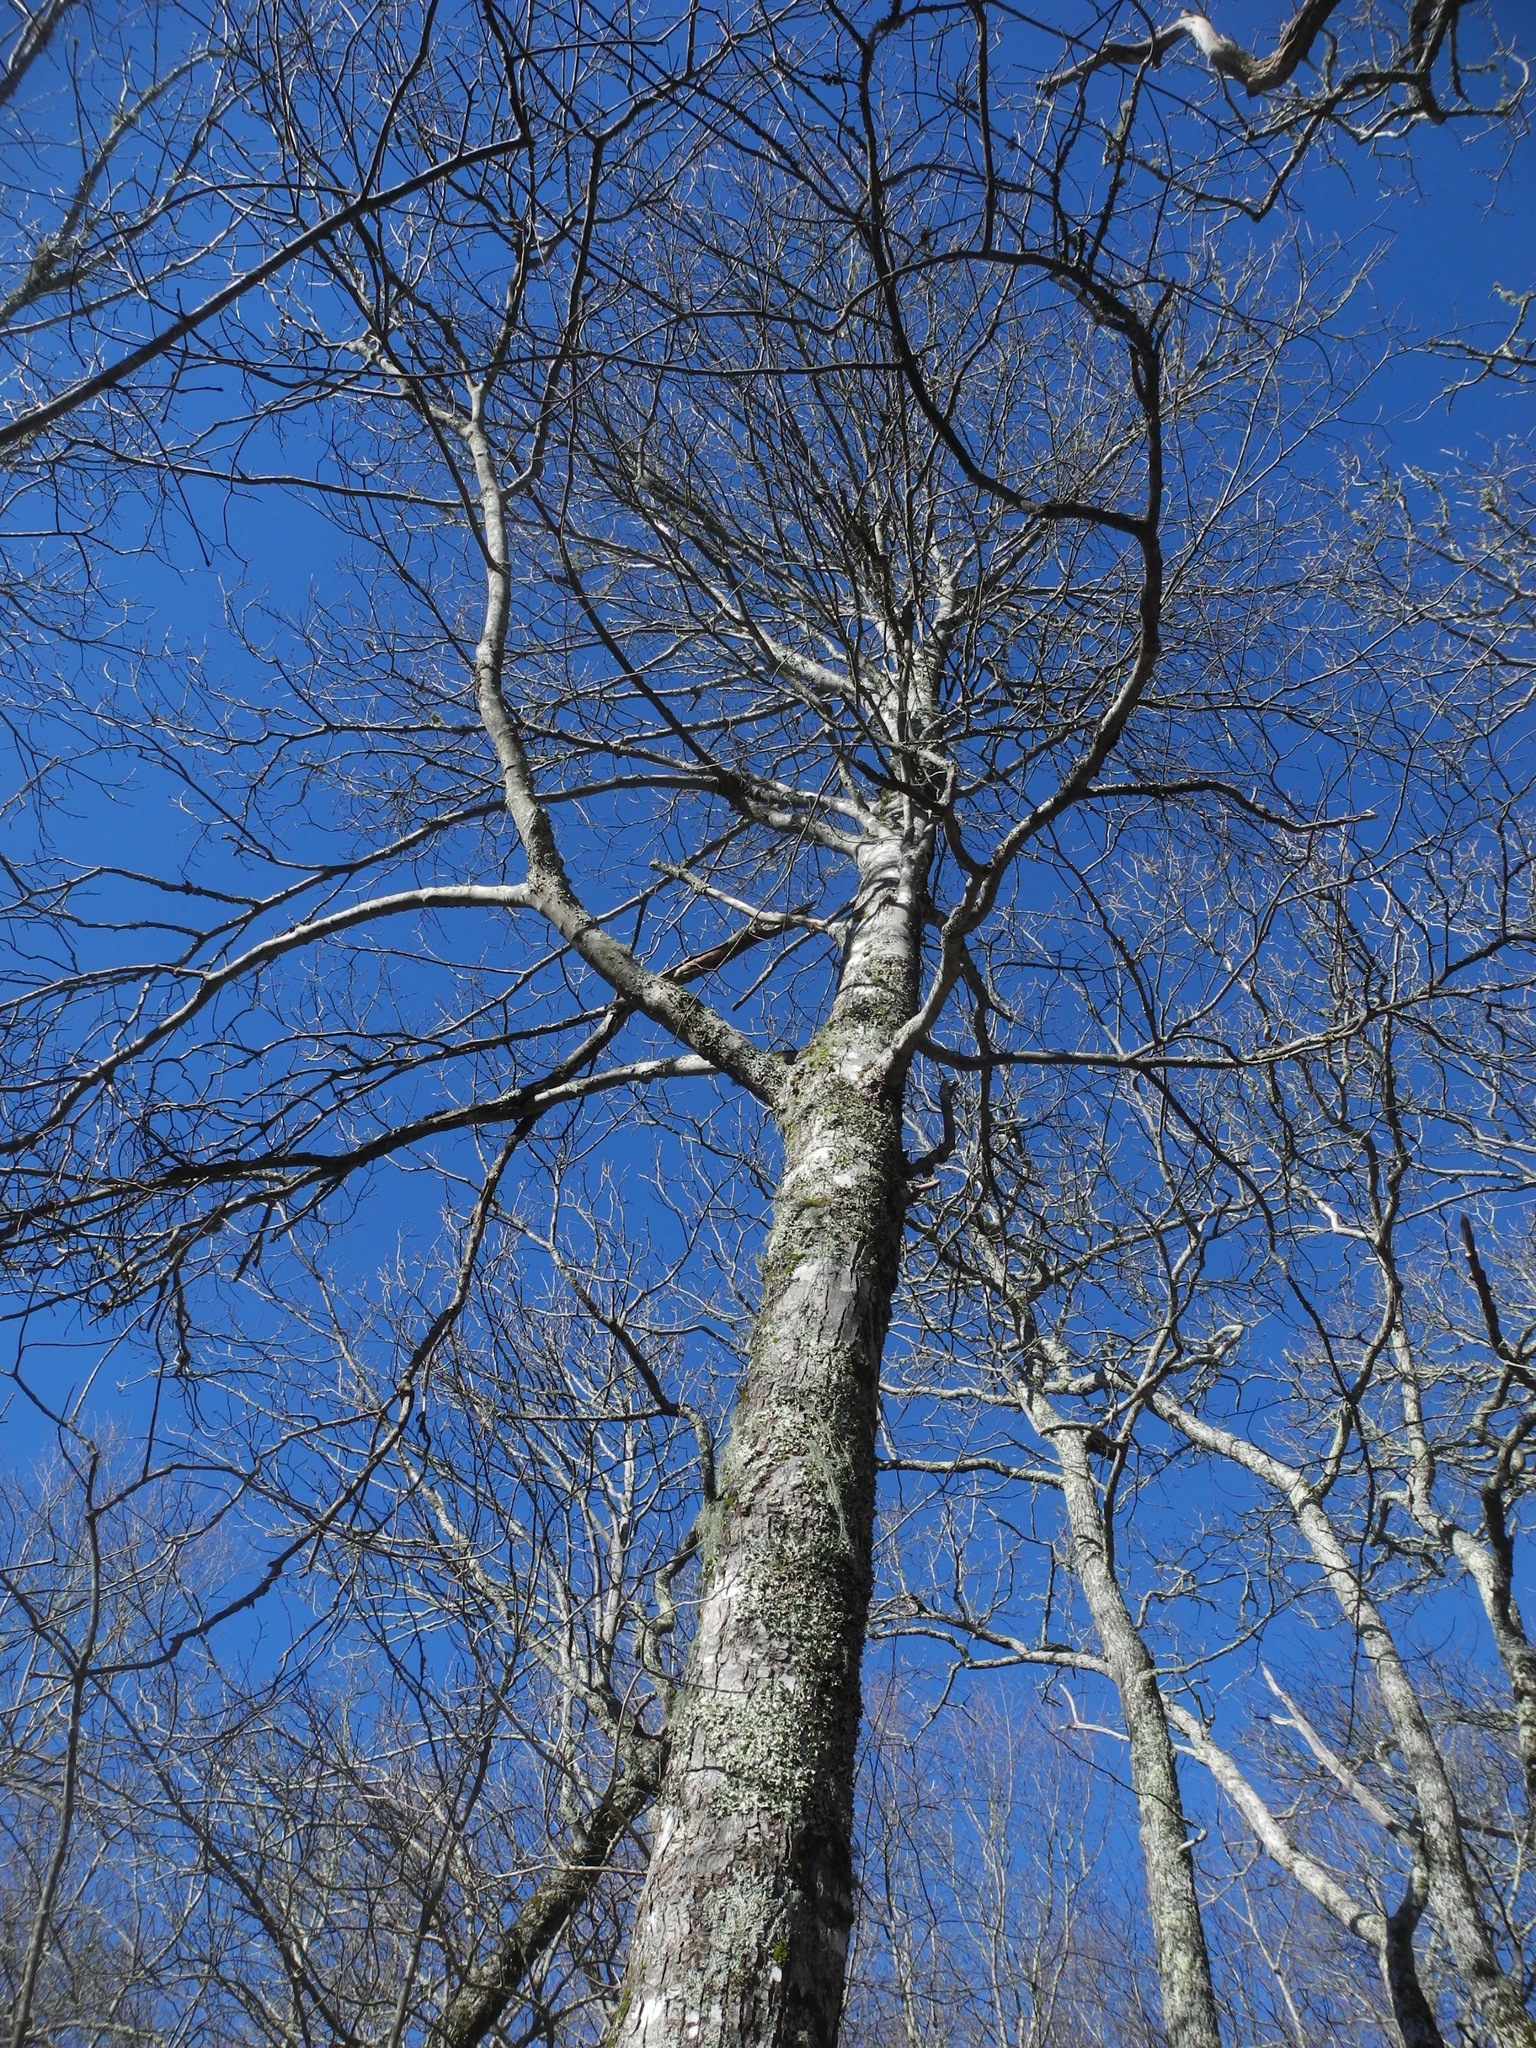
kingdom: Plantae
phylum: Tracheophyta
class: Magnoliopsida
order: Sapindales
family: Sapindaceae
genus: Acer
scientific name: Acer freemanii
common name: Freeman maple
